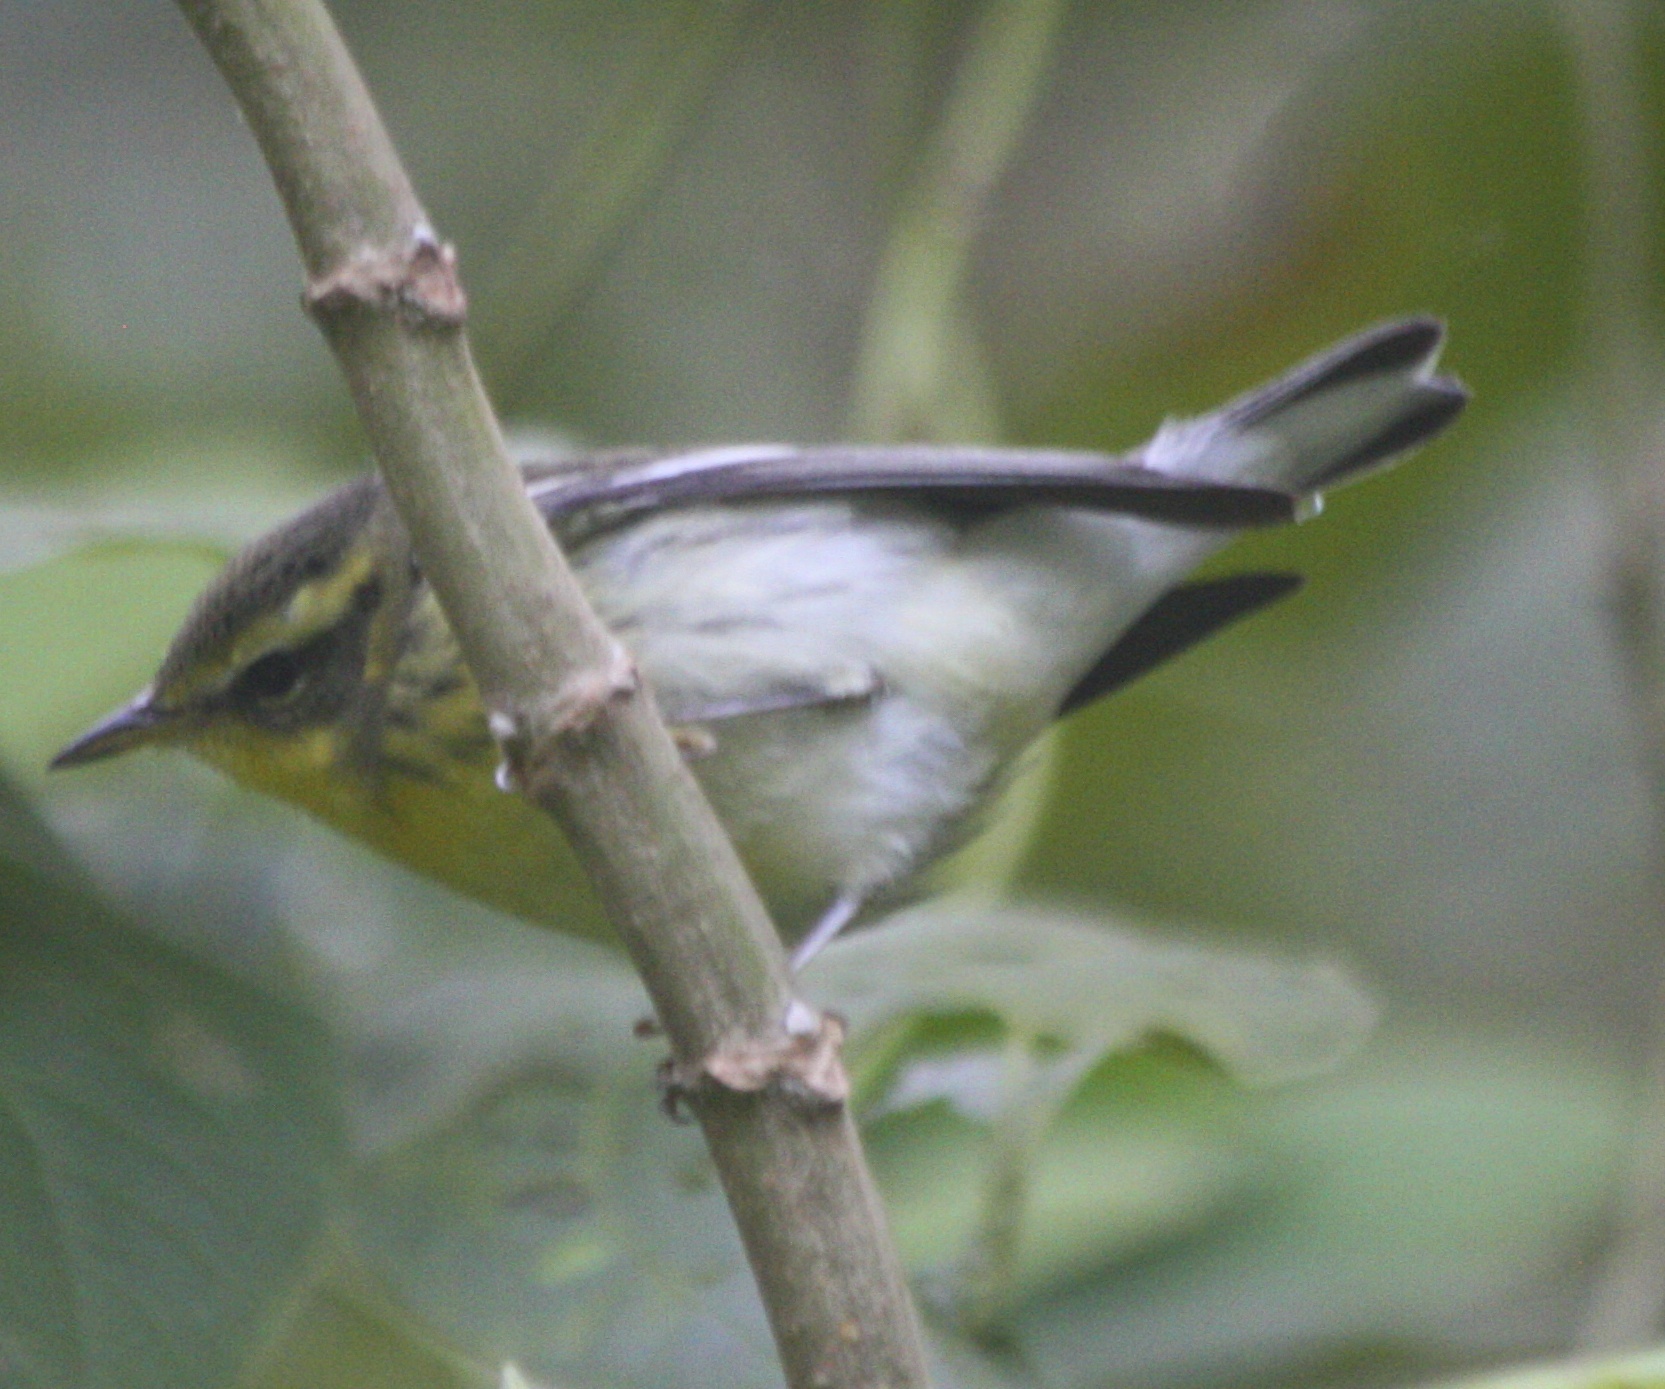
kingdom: Animalia
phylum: Chordata
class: Aves
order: Passeriformes
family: Parulidae
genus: Setophaga
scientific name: Setophaga fusca
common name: Blackburnian warbler
